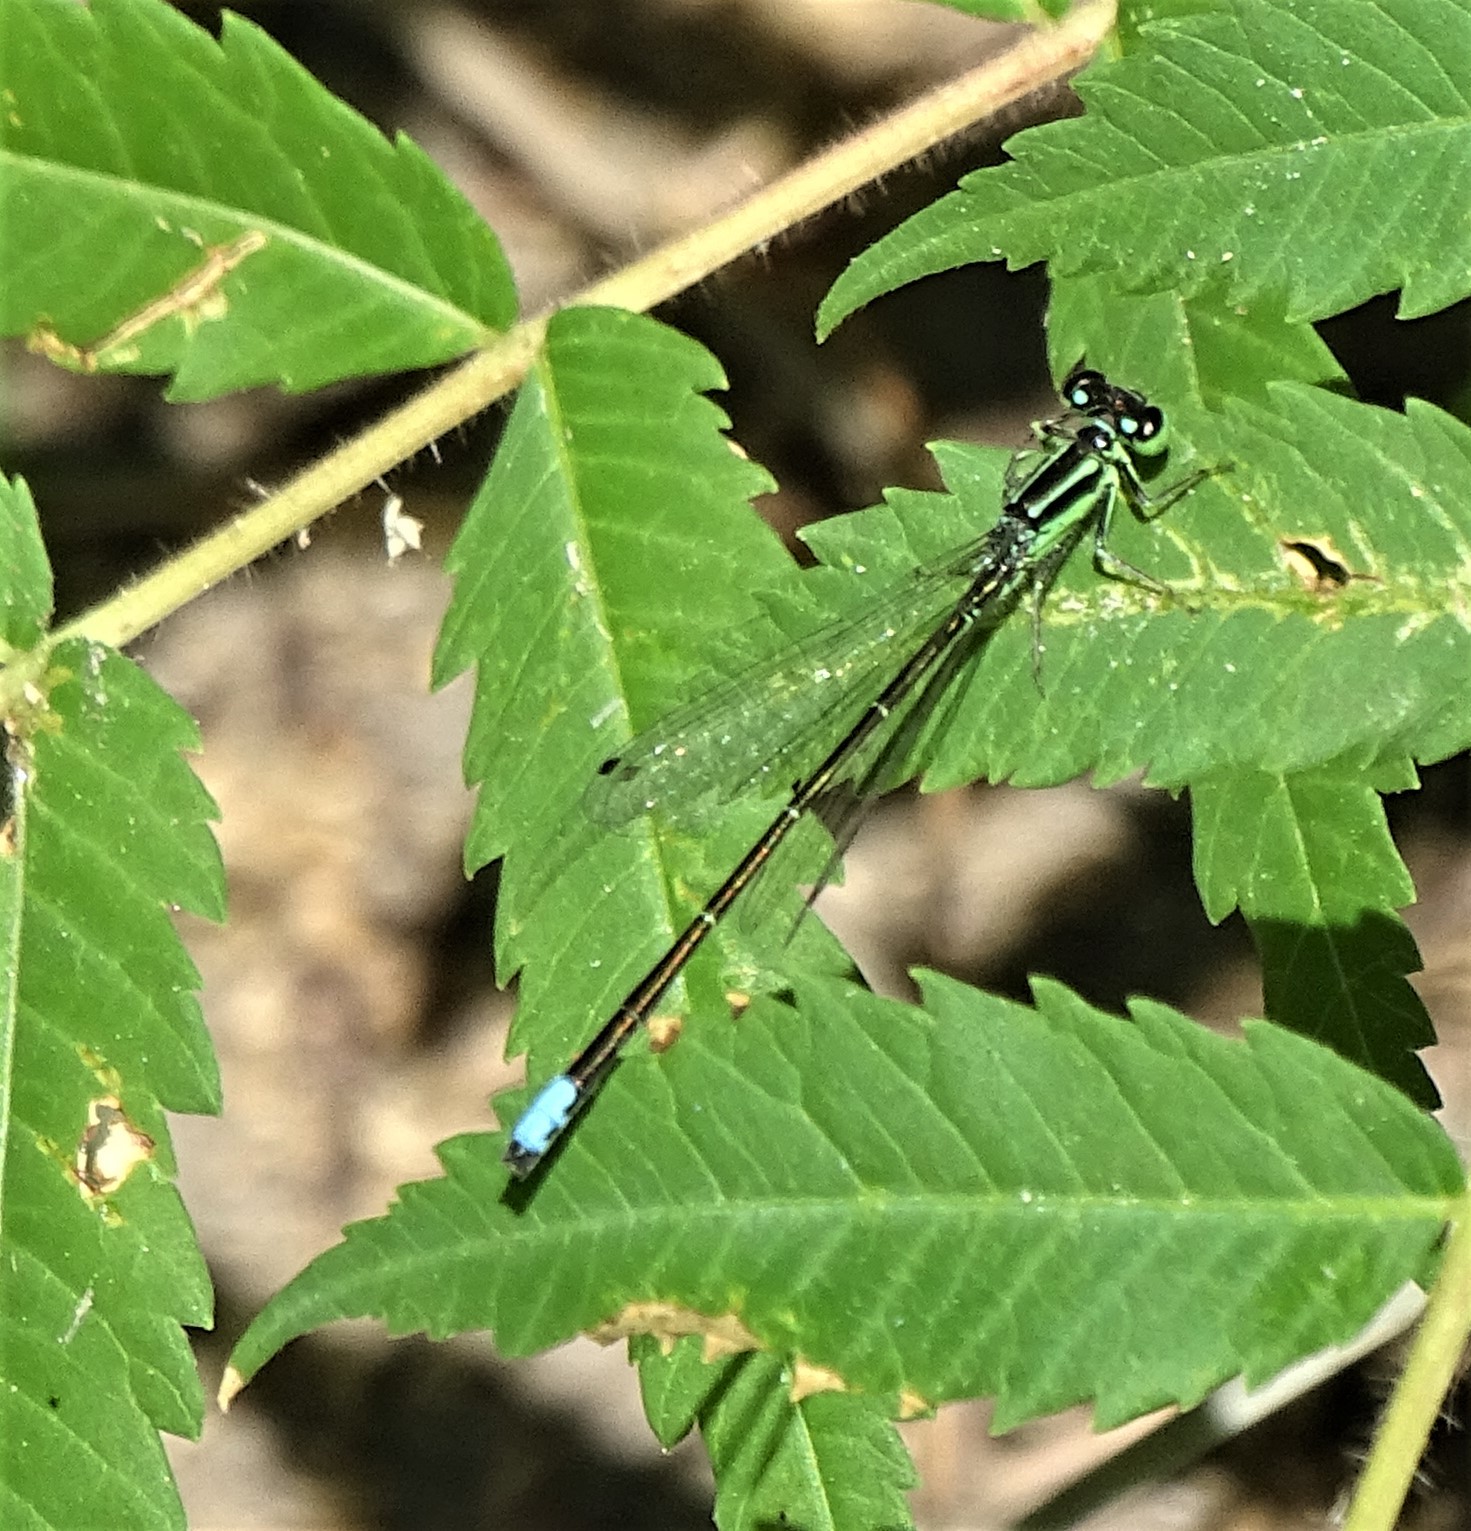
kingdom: Animalia
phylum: Arthropoda
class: Insecta
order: Odonata
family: Coenagrionidae
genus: Ischnura
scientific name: Ischnura verticalis
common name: Eastern forktail
